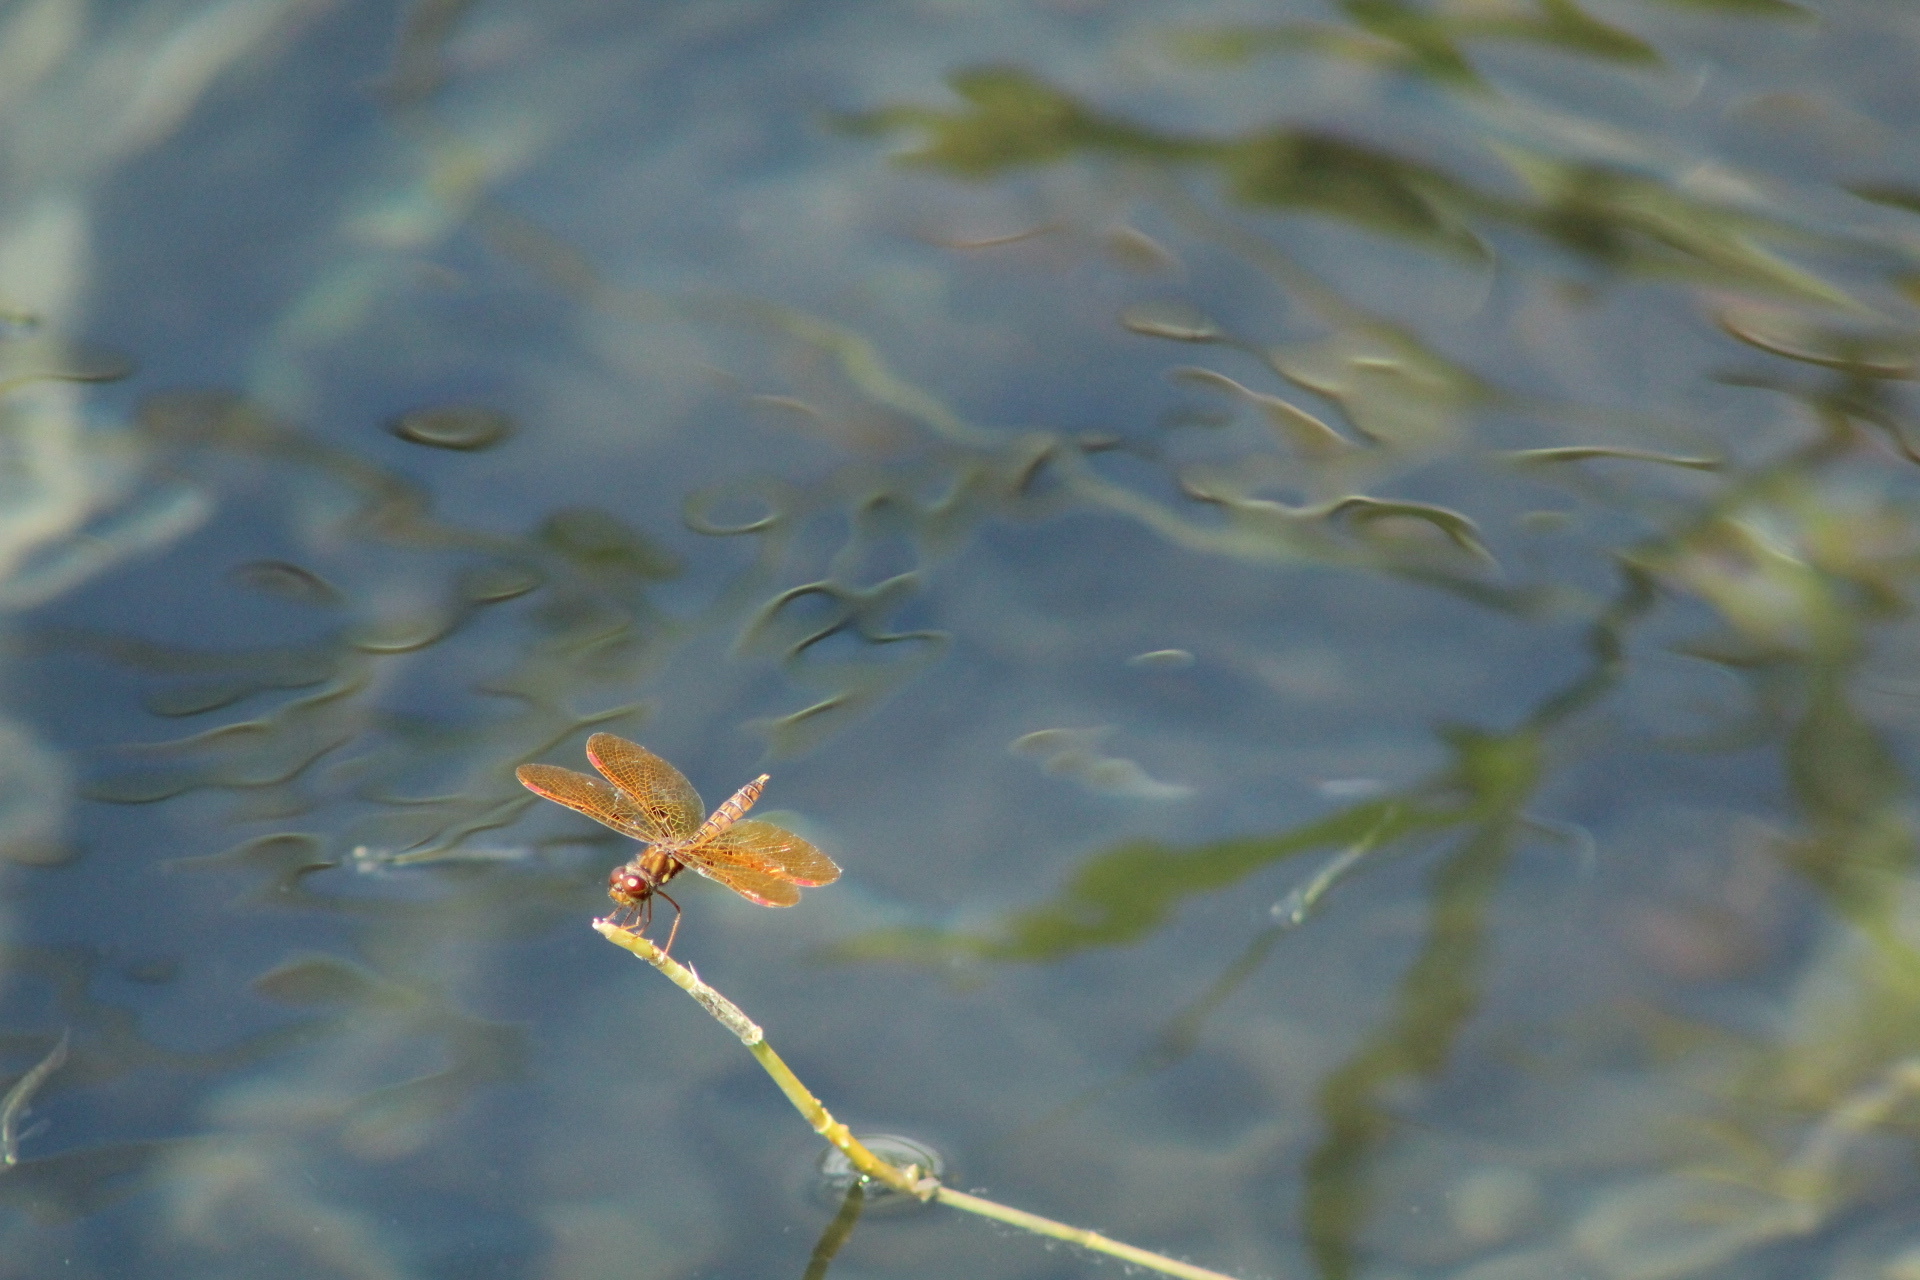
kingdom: Animalia
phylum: Arthropoda
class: Insecta
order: Odonata
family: Libellulidae
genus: Perithemis
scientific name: Perithemis tenera
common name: Eastern amberwing
